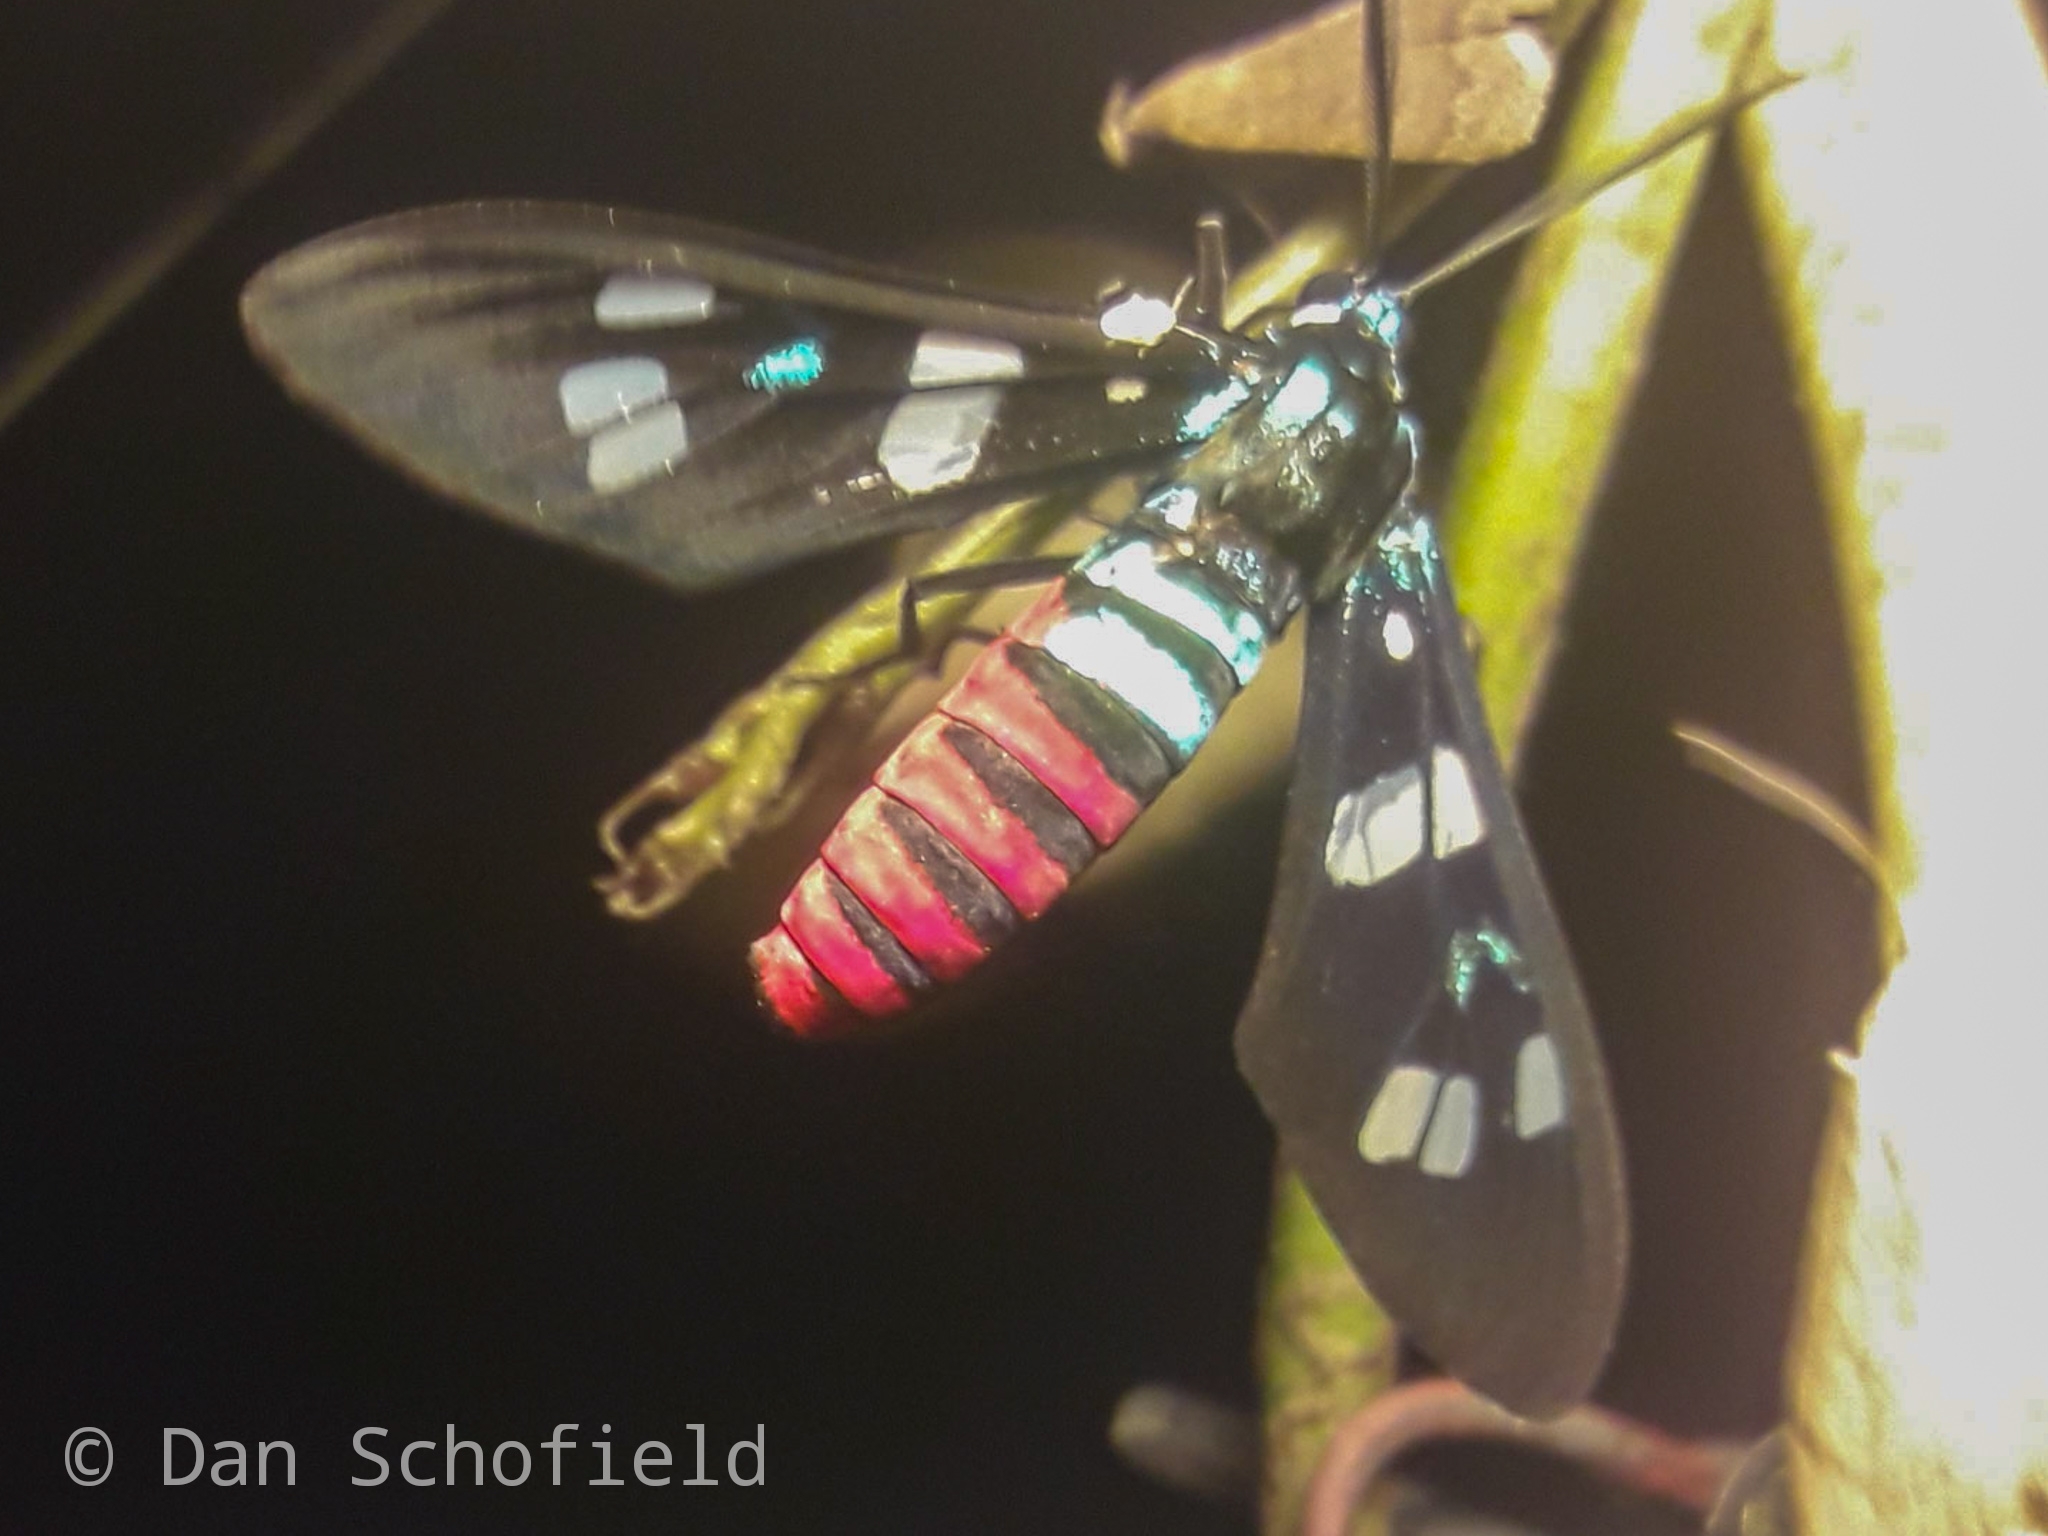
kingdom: Animalia
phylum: Arthropoda
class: Insecta
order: Lepidoptera
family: Erebidae
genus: Euchromia
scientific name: Euchromia creusa
